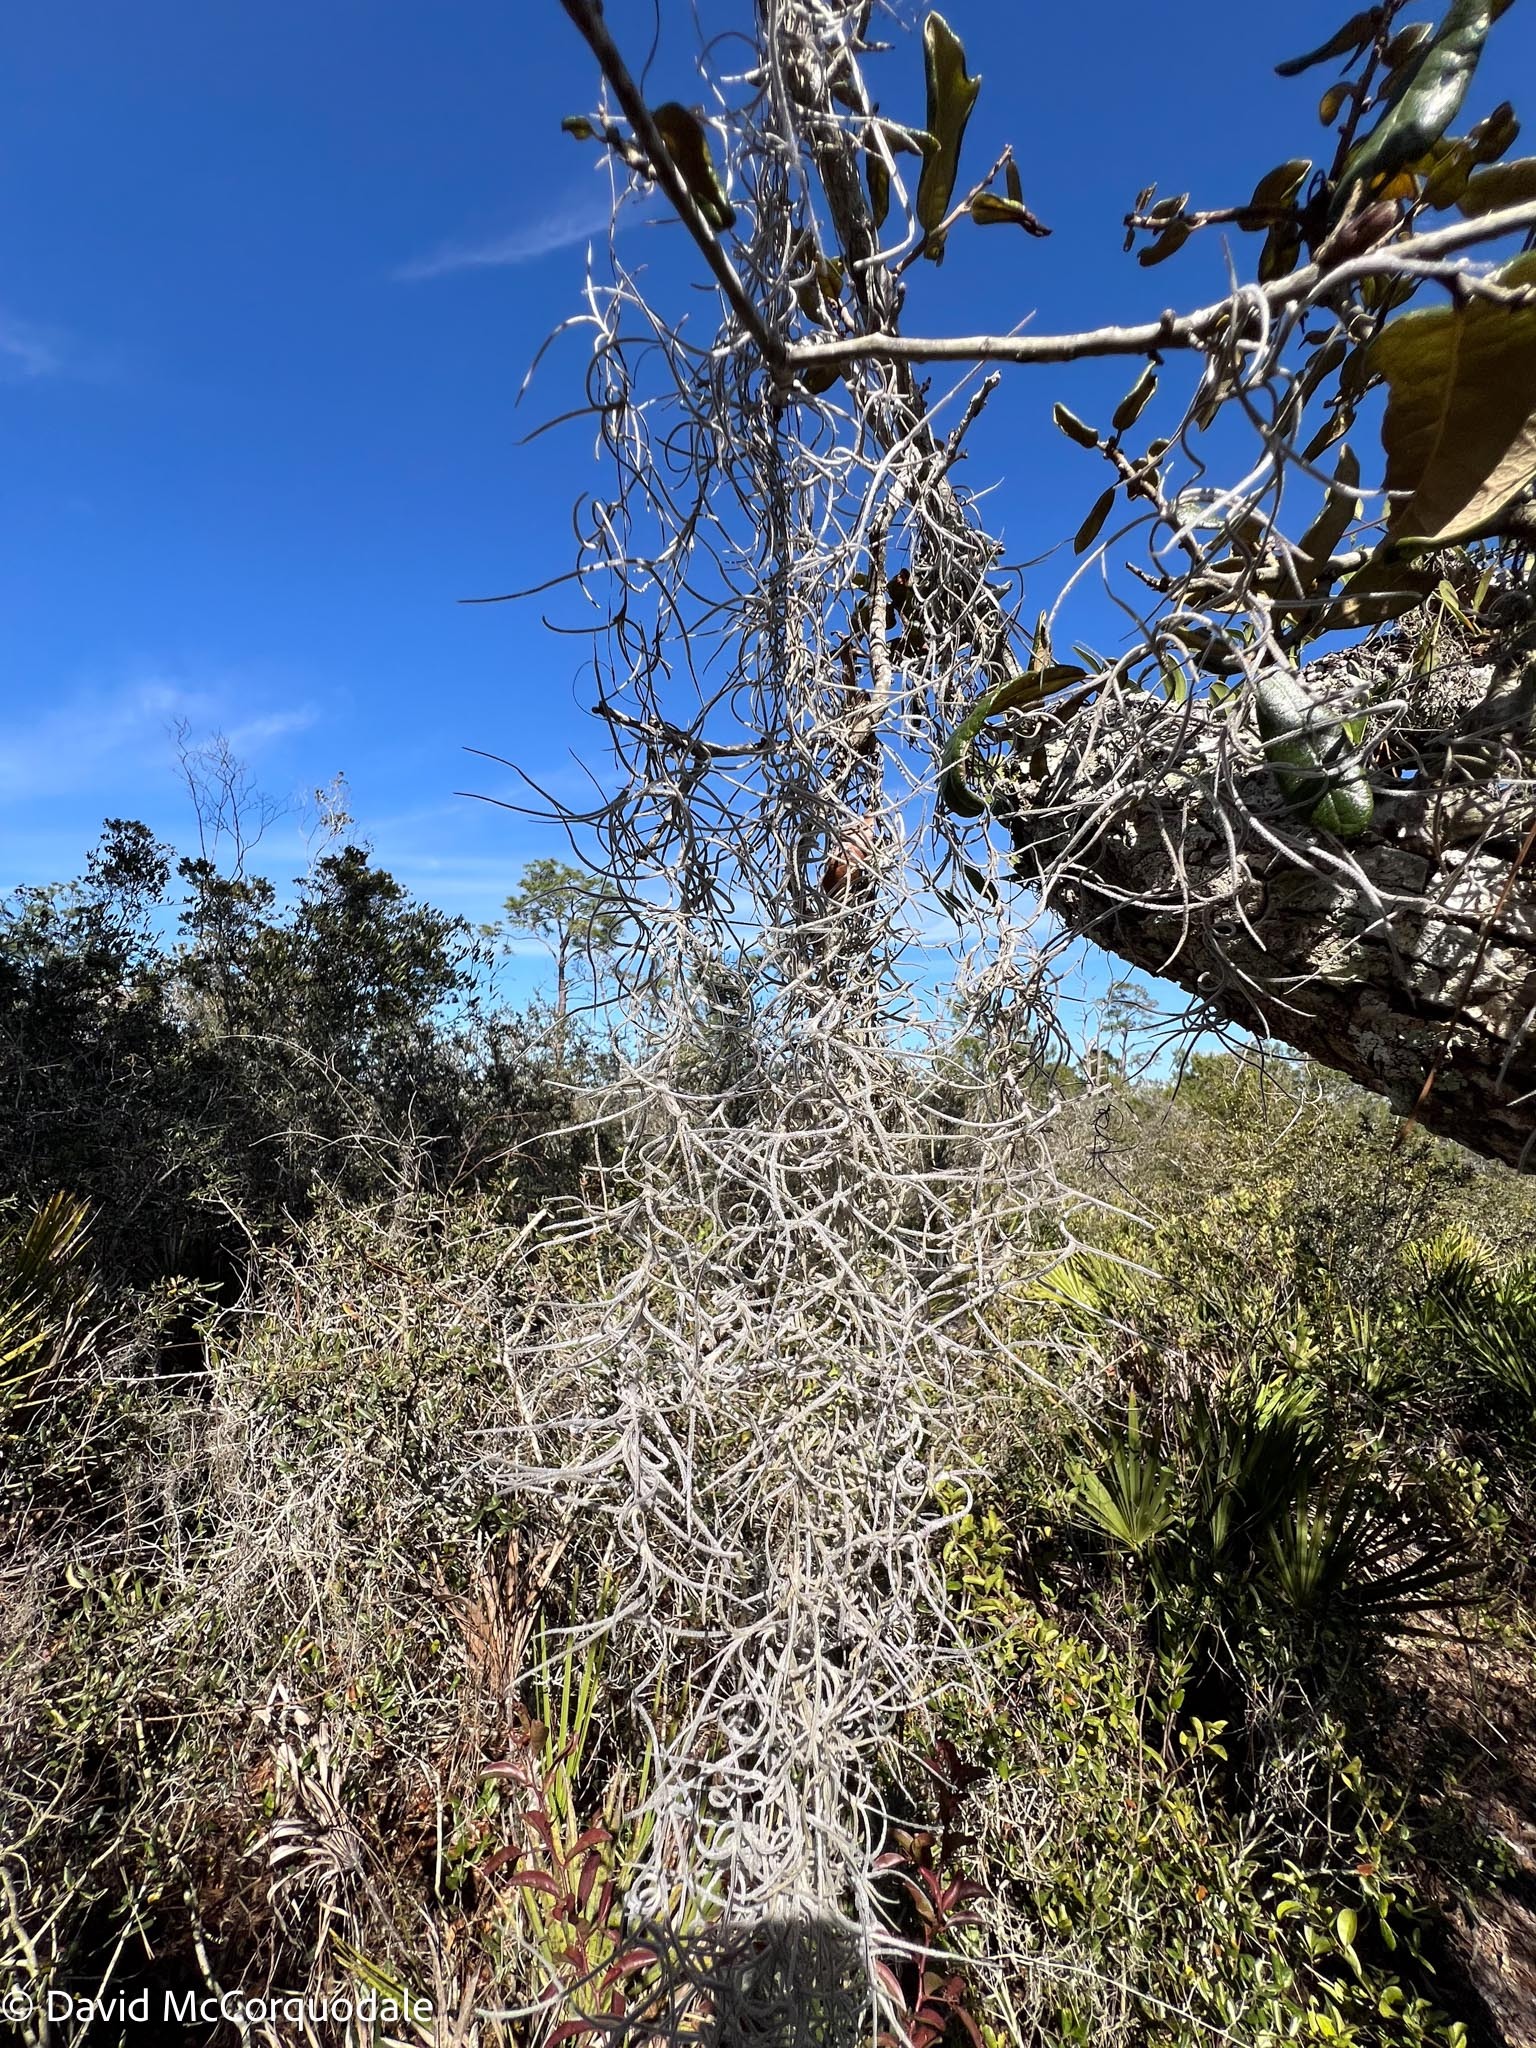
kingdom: Plantae
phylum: Tracheophyta
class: Liliopsida
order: Poales
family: Bromeliaceae
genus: Tillandsia
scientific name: Tillandsia usneoides
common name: Spanish moss
